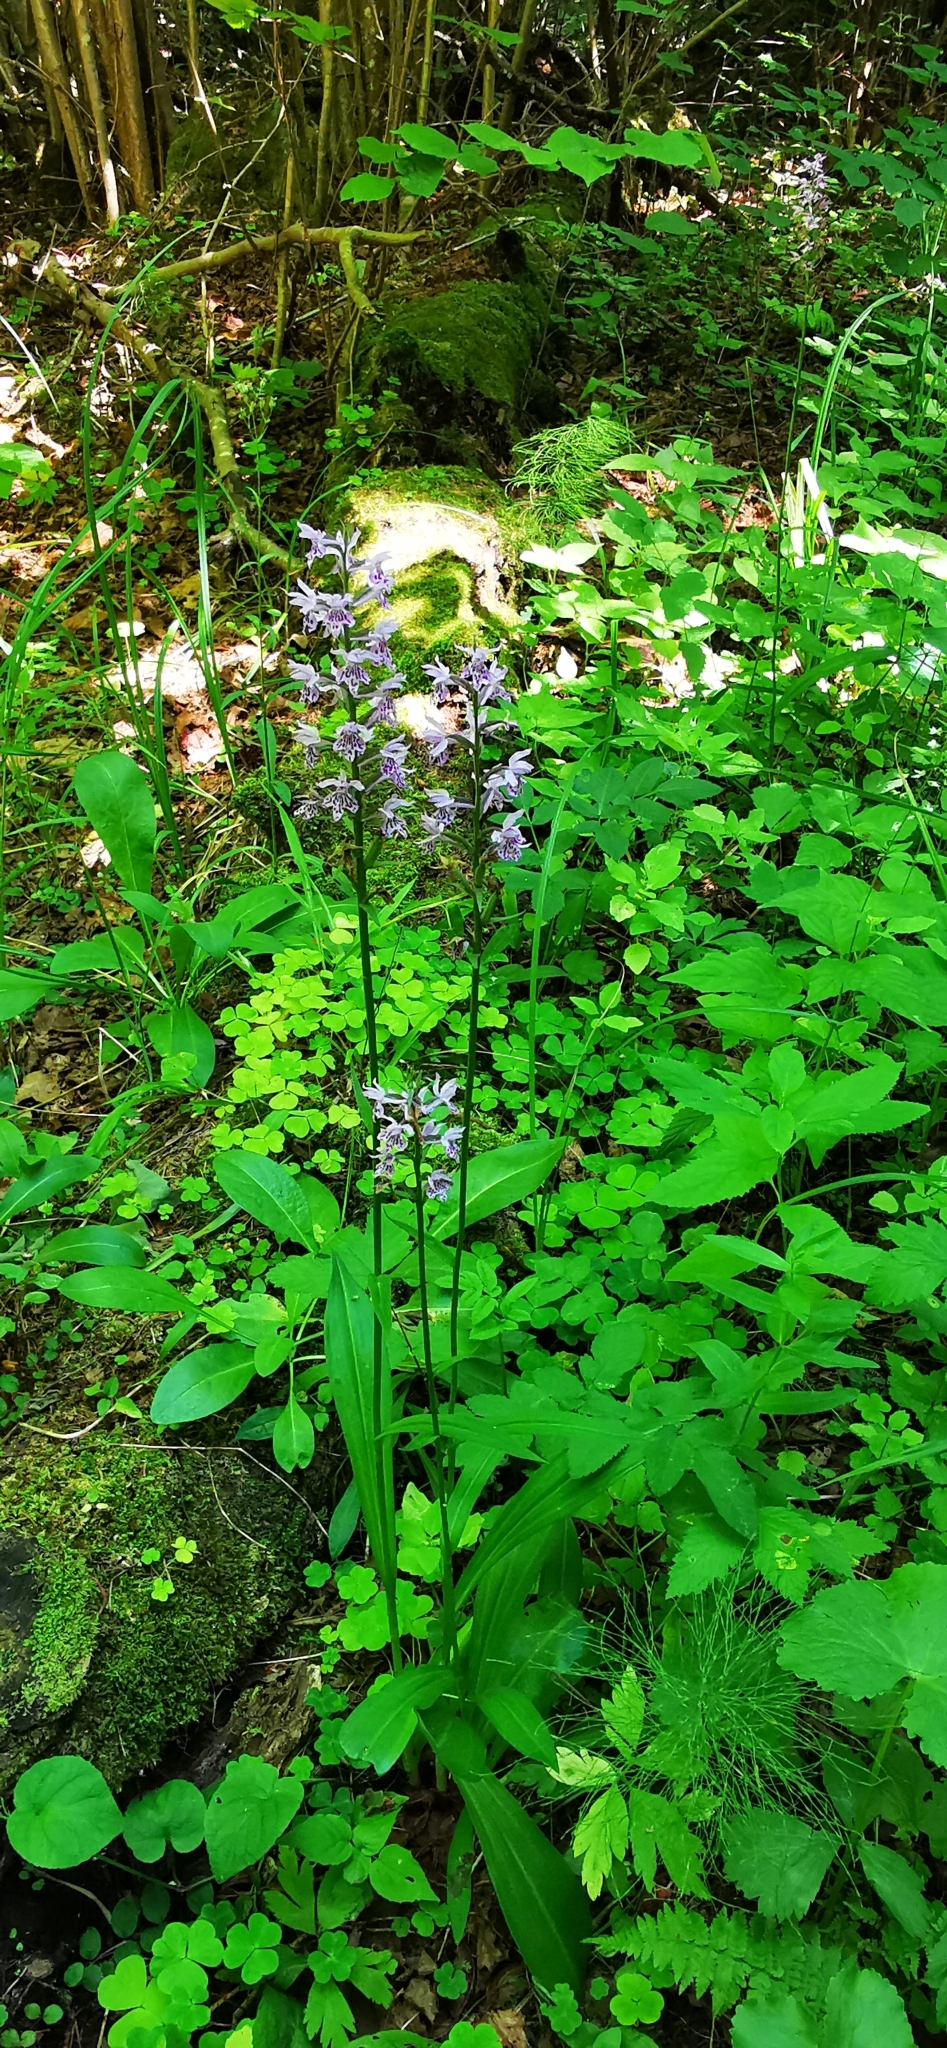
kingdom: Plantae
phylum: Tracheophyta
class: Liliopsida
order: Asparagales
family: Orchidaceae
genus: Dactylorhiza
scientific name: Dactylorhiza maculata
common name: Heath spotted-orchid
